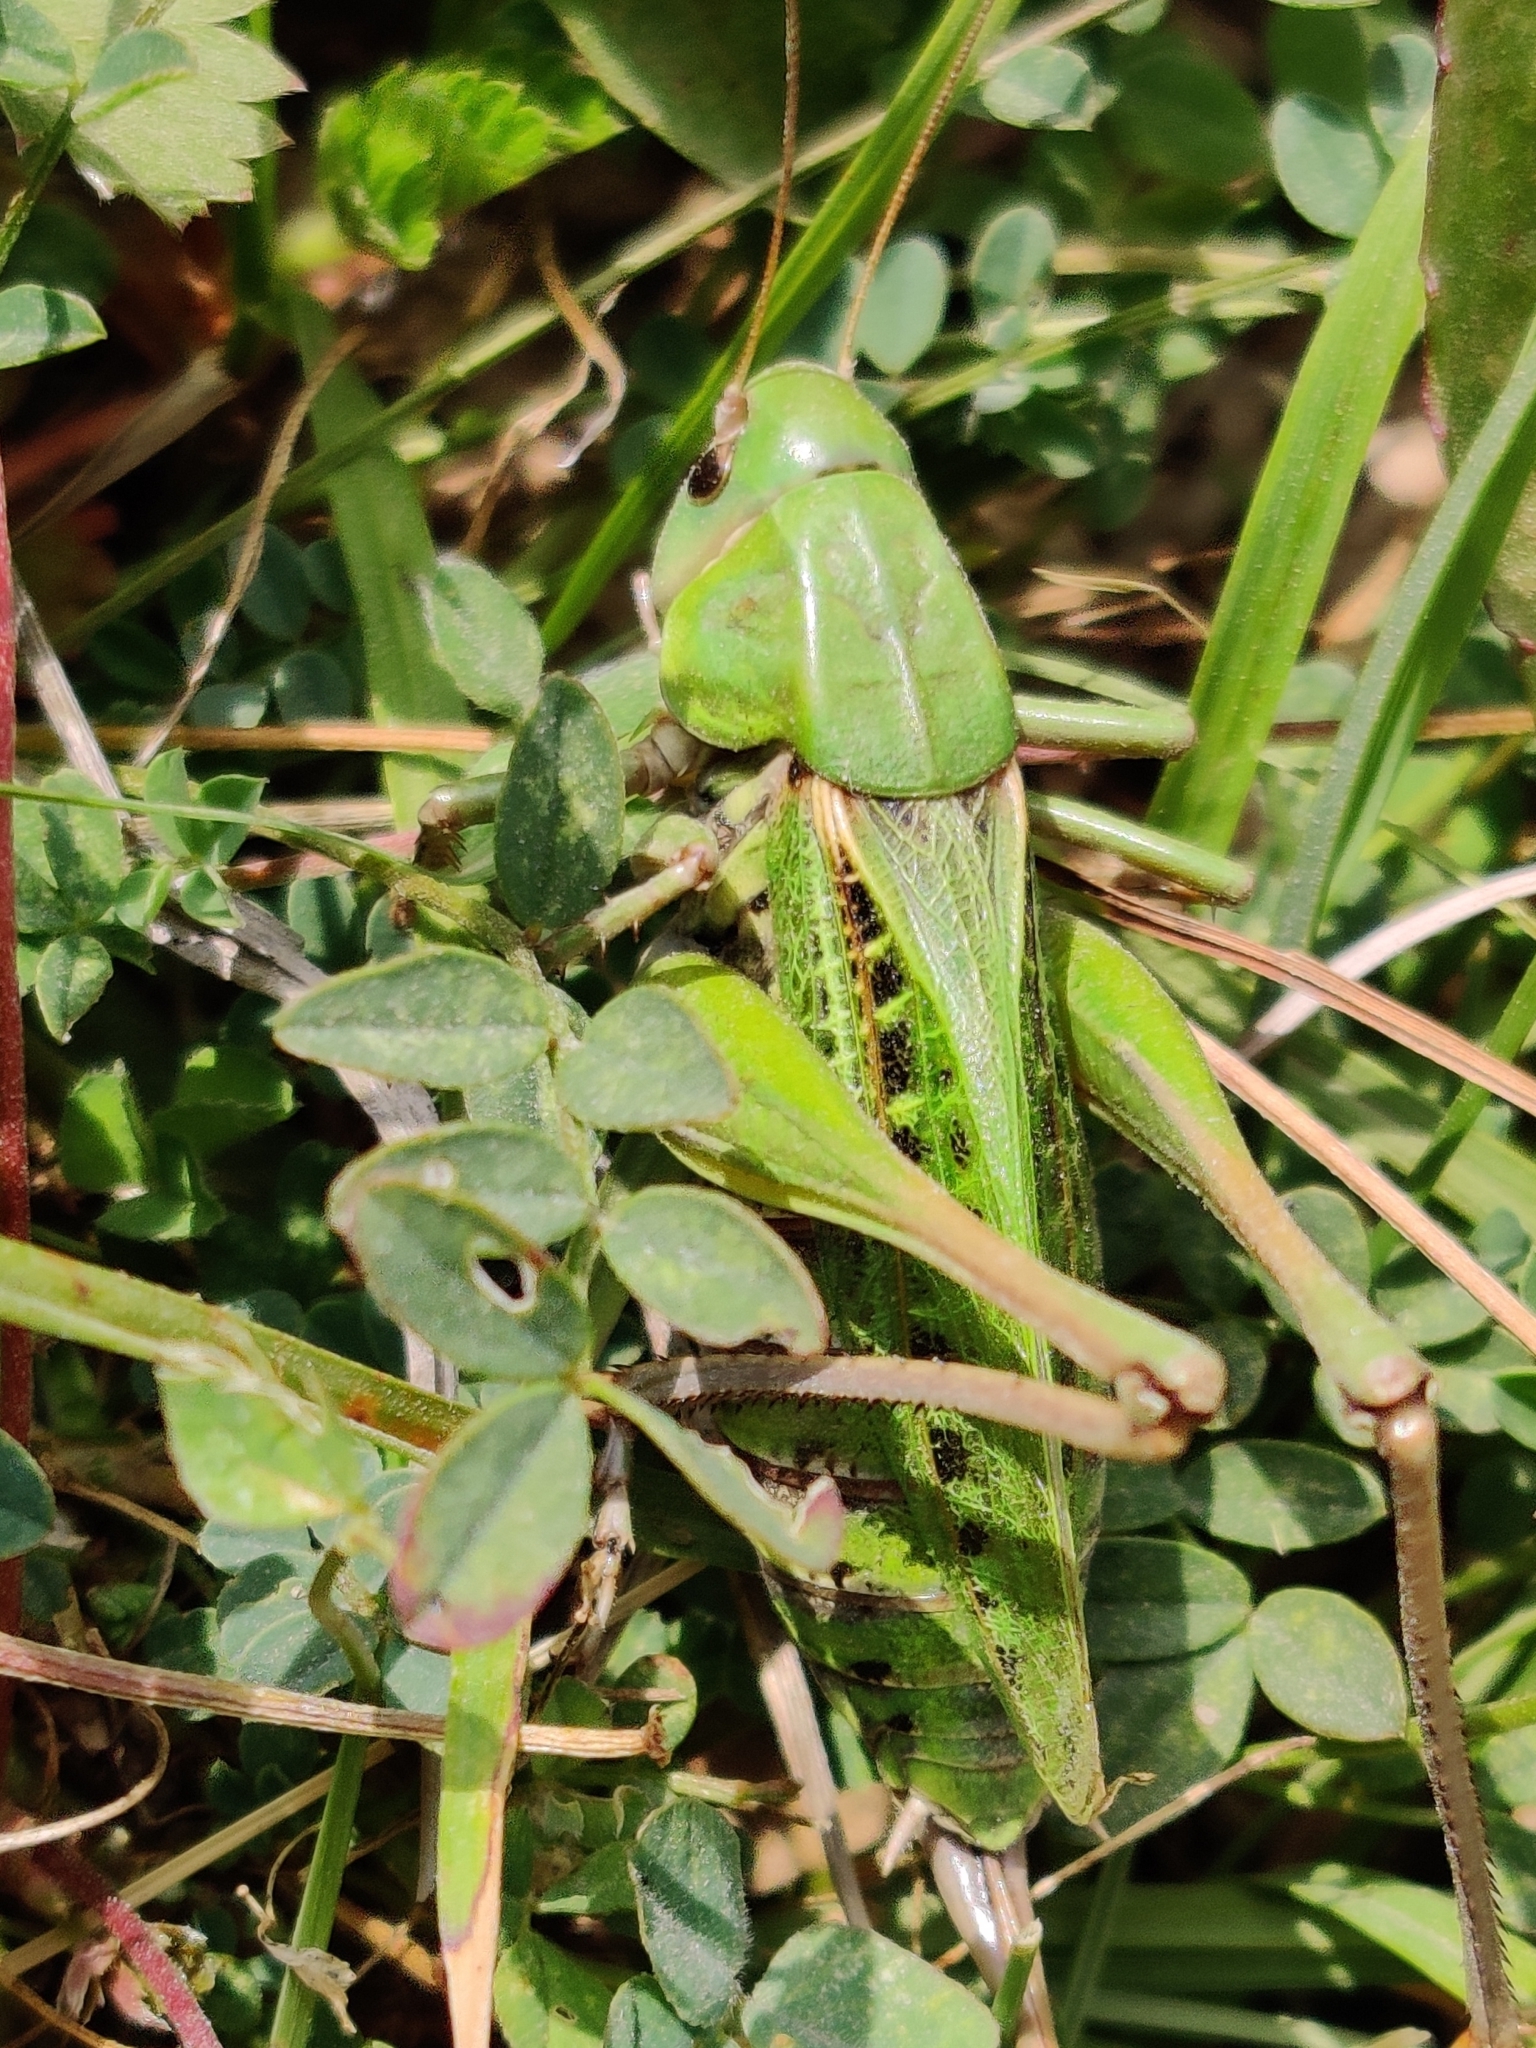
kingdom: Animalia
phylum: Arthropoda
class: Insecta
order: Orthoptera
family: Tettigoniidae
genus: Decticus
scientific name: Decticus verrucivorus
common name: Wart-biter
